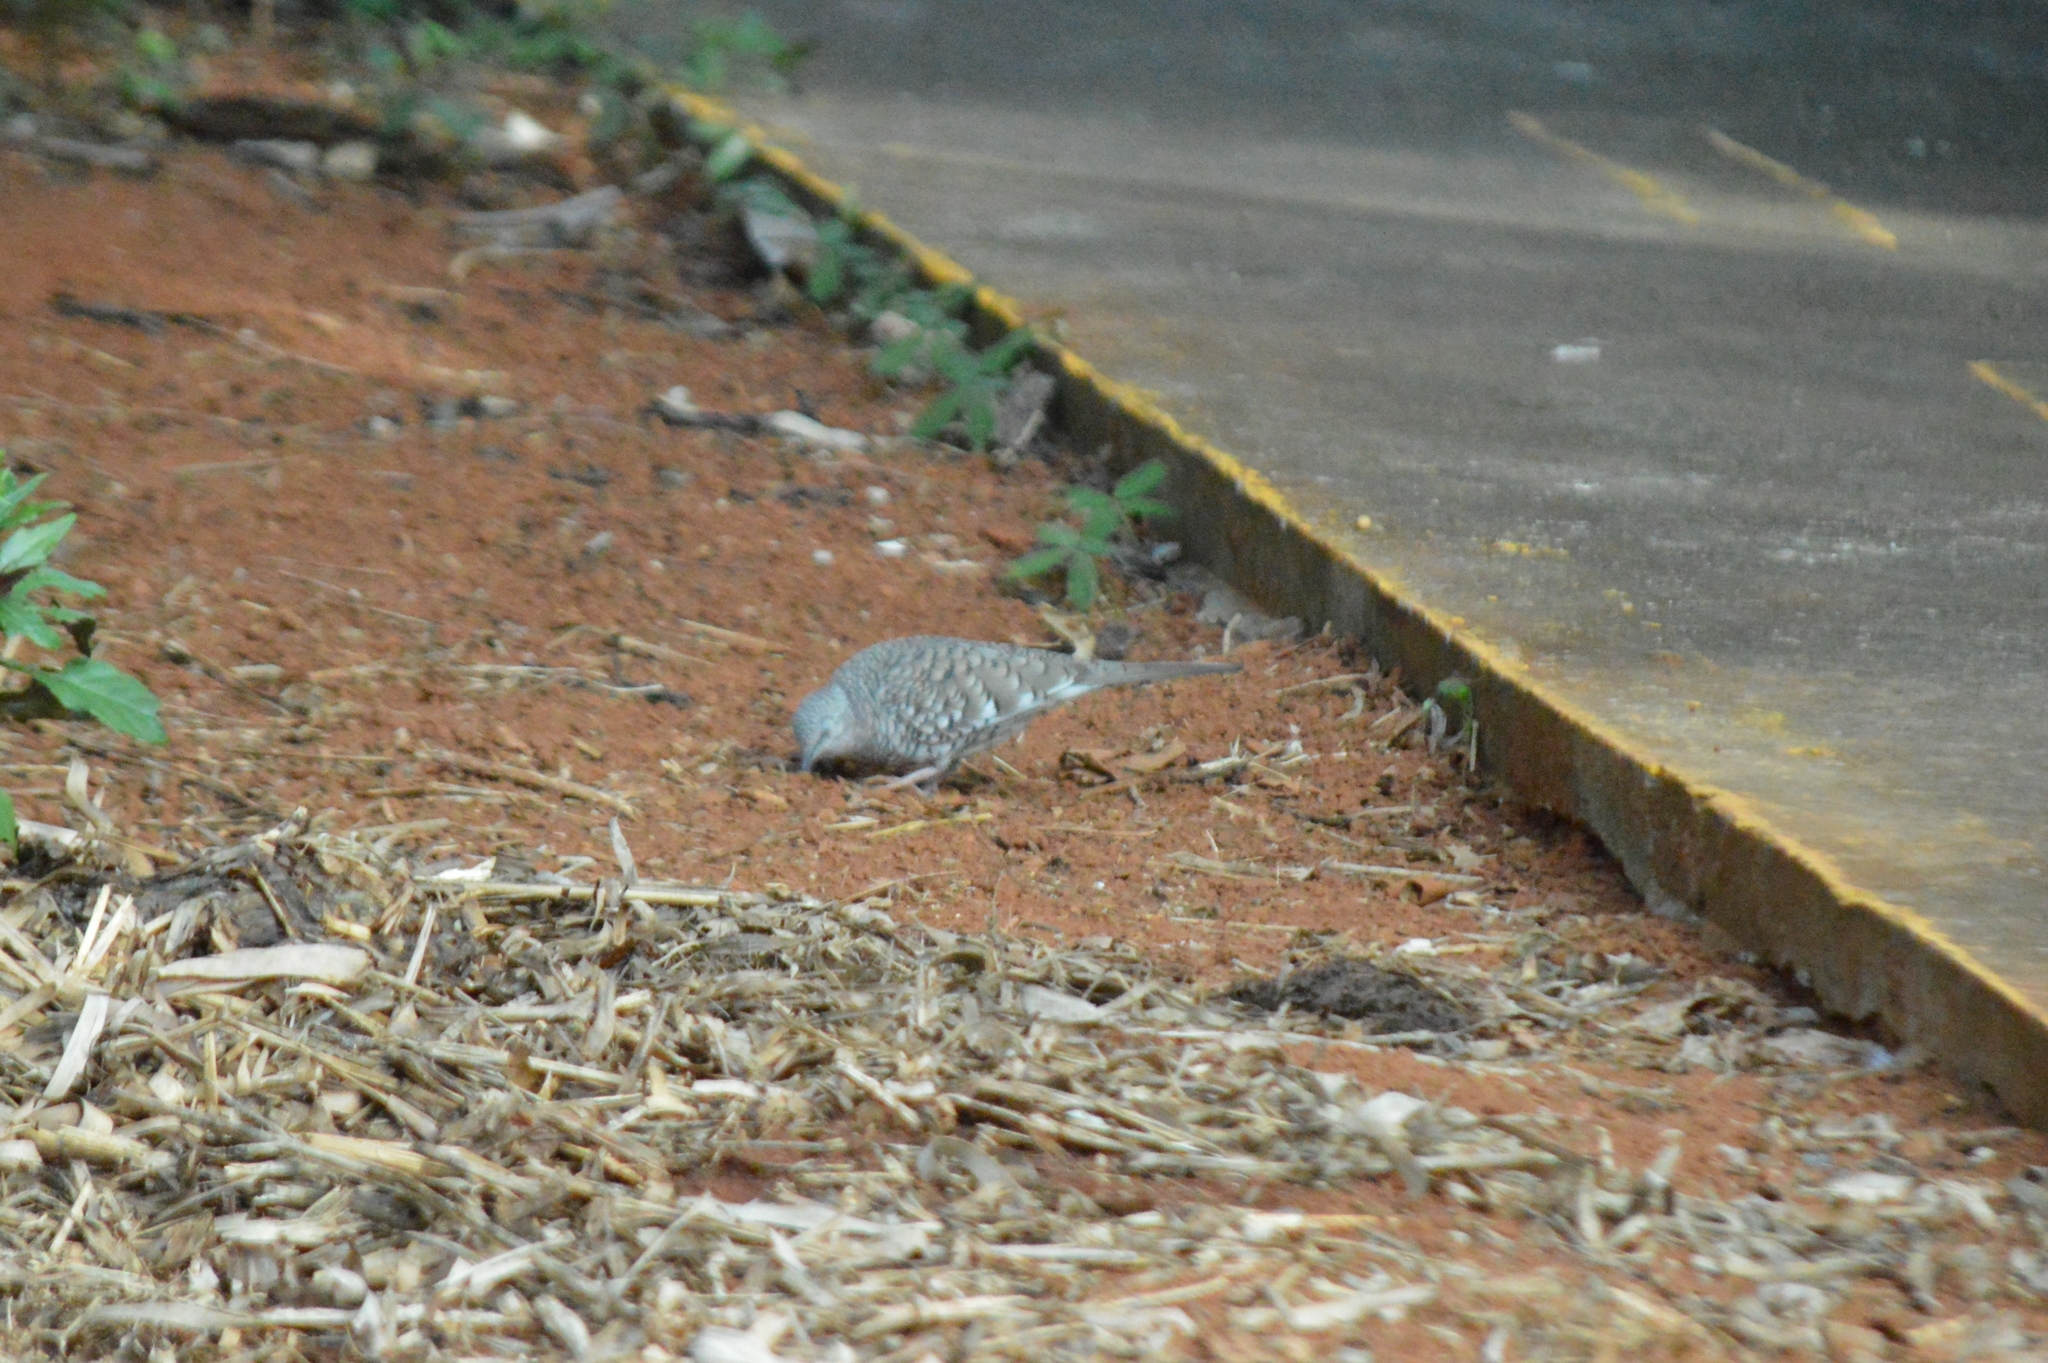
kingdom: Animalia
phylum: Chordata
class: Aves
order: Columbiformes
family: Columbidae
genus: Columbina
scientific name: Columbina squammata
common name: Scaled dove
